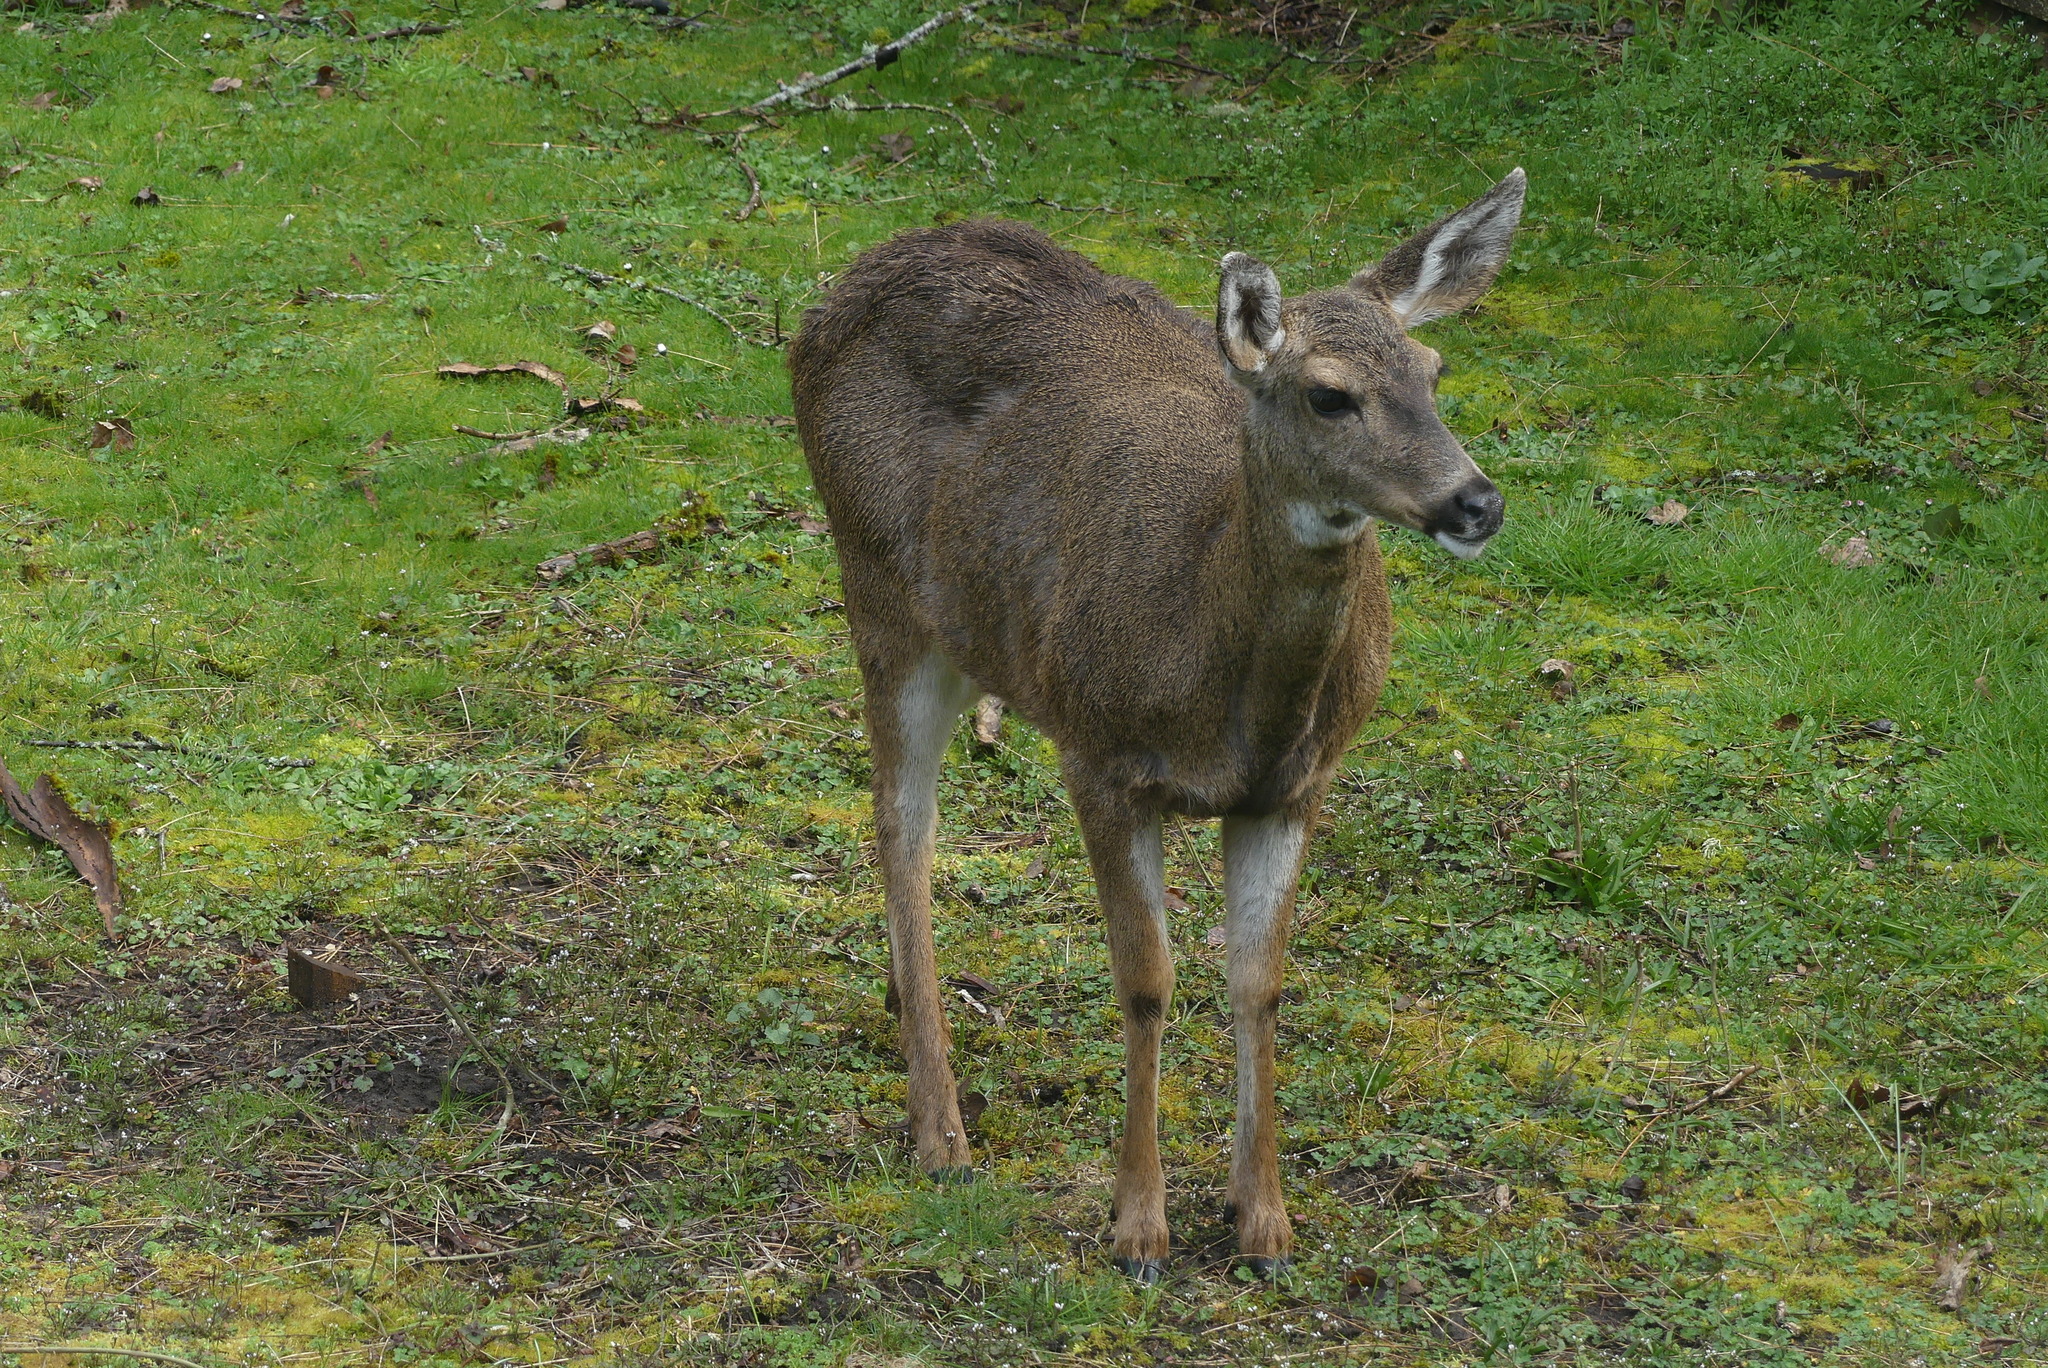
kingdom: Animalia
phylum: Chordata
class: Mammalia
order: Artiodactyla
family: Cervidae
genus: Odocoileus
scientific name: Odocoileus hemionus
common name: Mule deer
